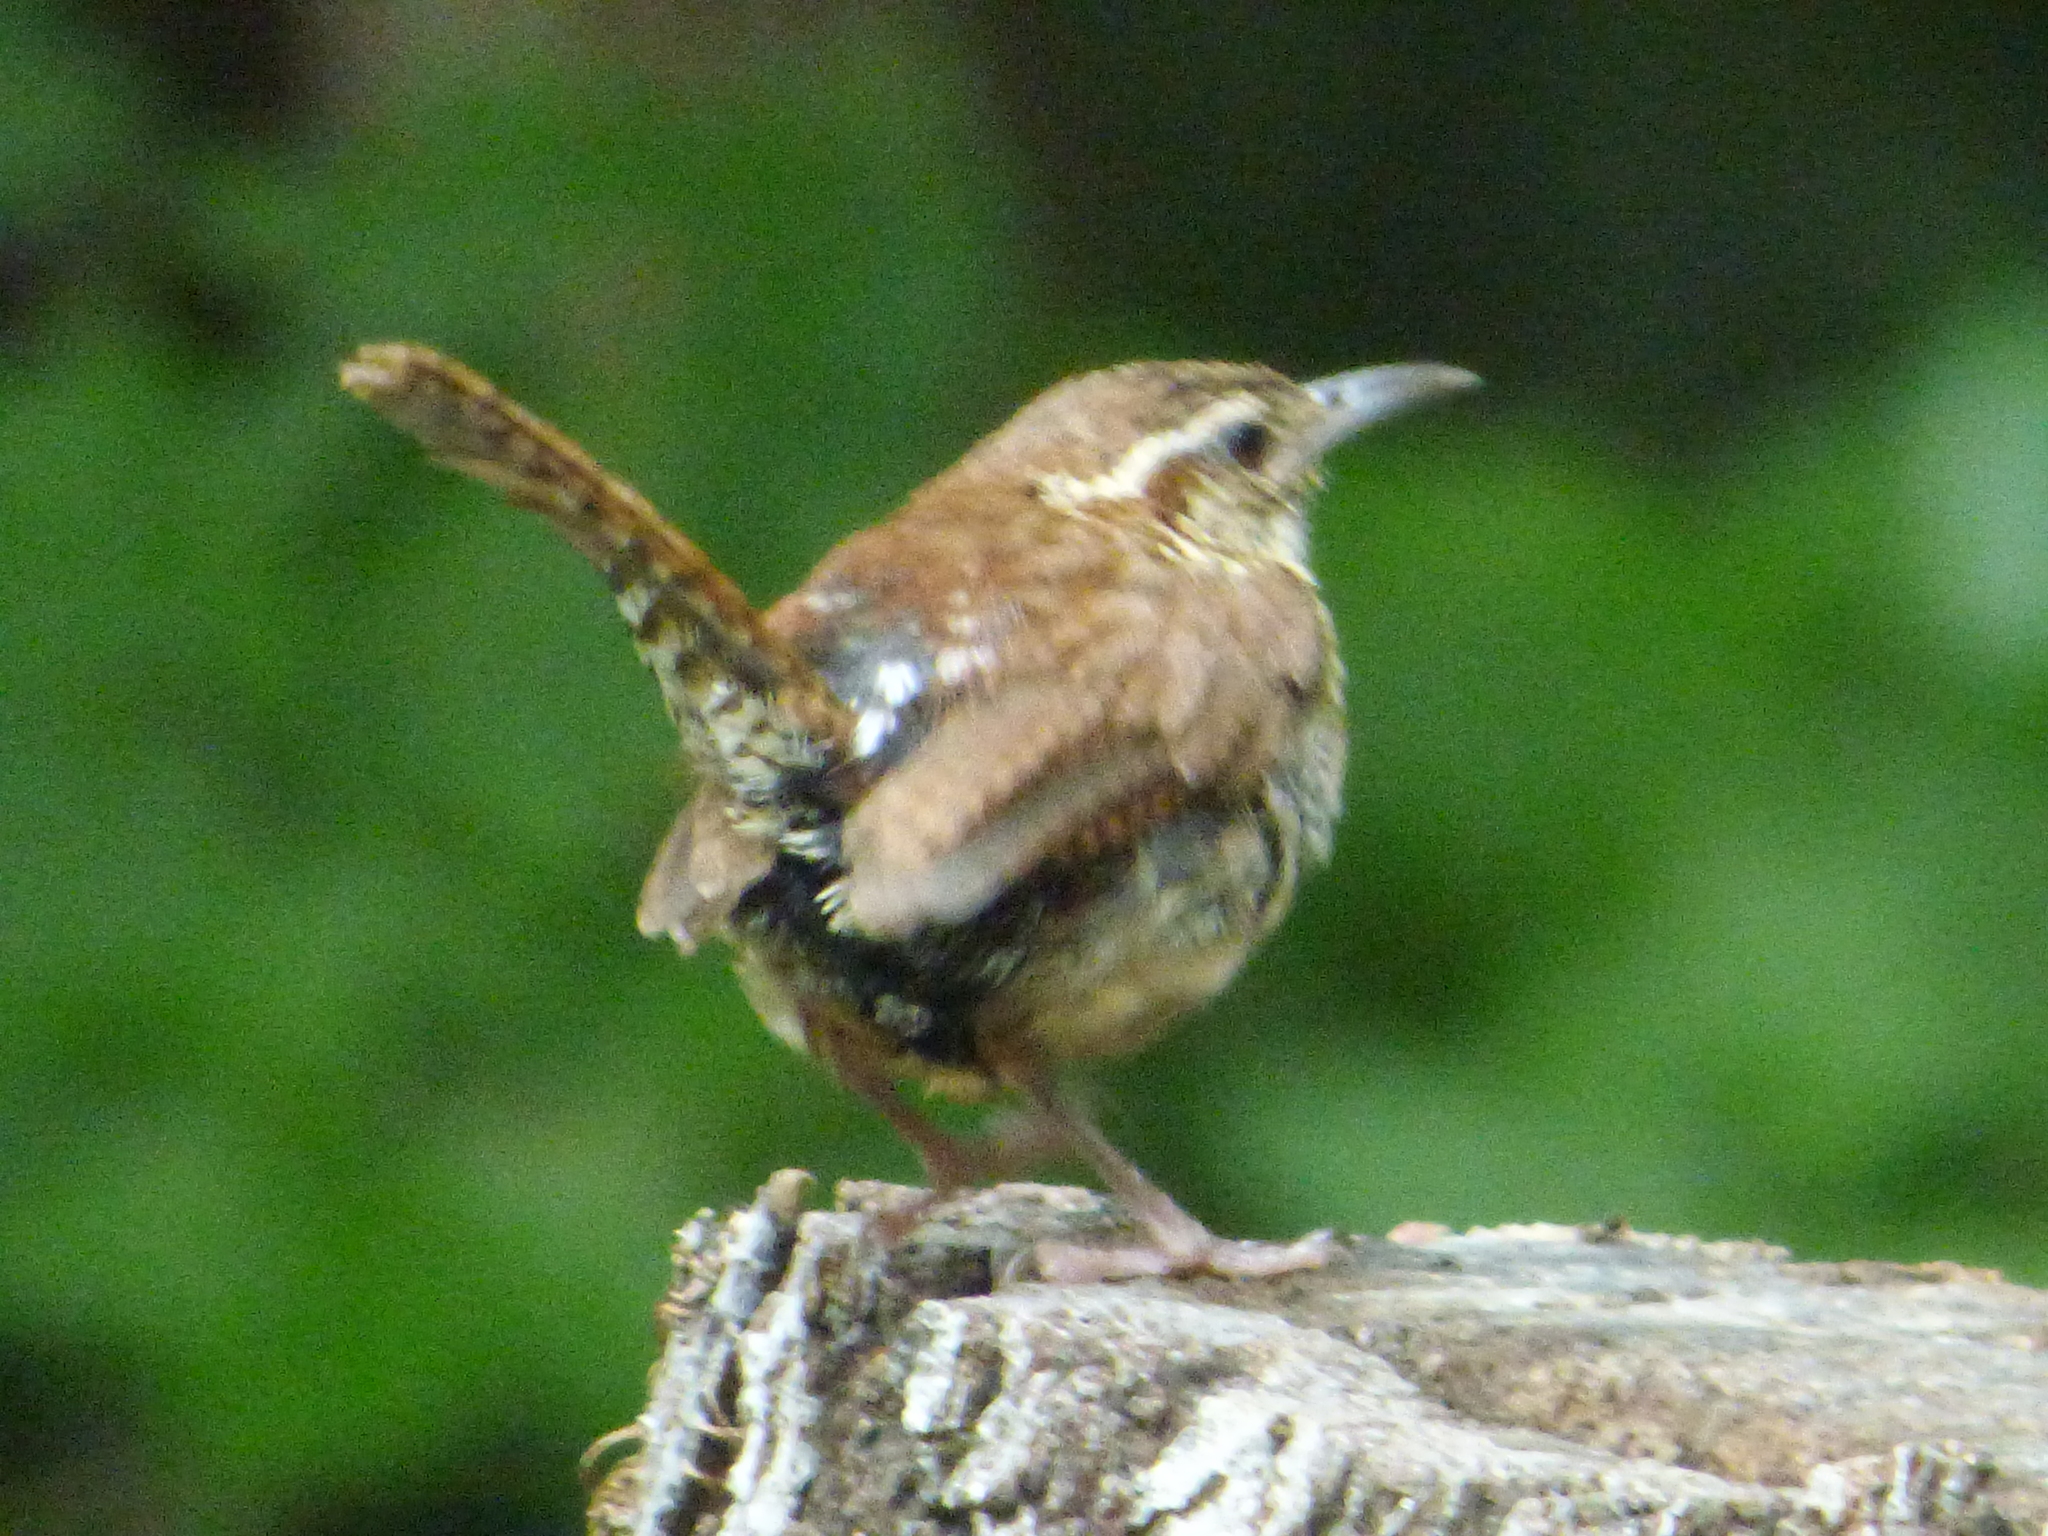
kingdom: Animalia
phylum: Chordata
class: Aves
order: Passeriformes
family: Troglodytidae
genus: Thryothorus
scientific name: Thryothorus ludovicianus
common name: Carolina wren
